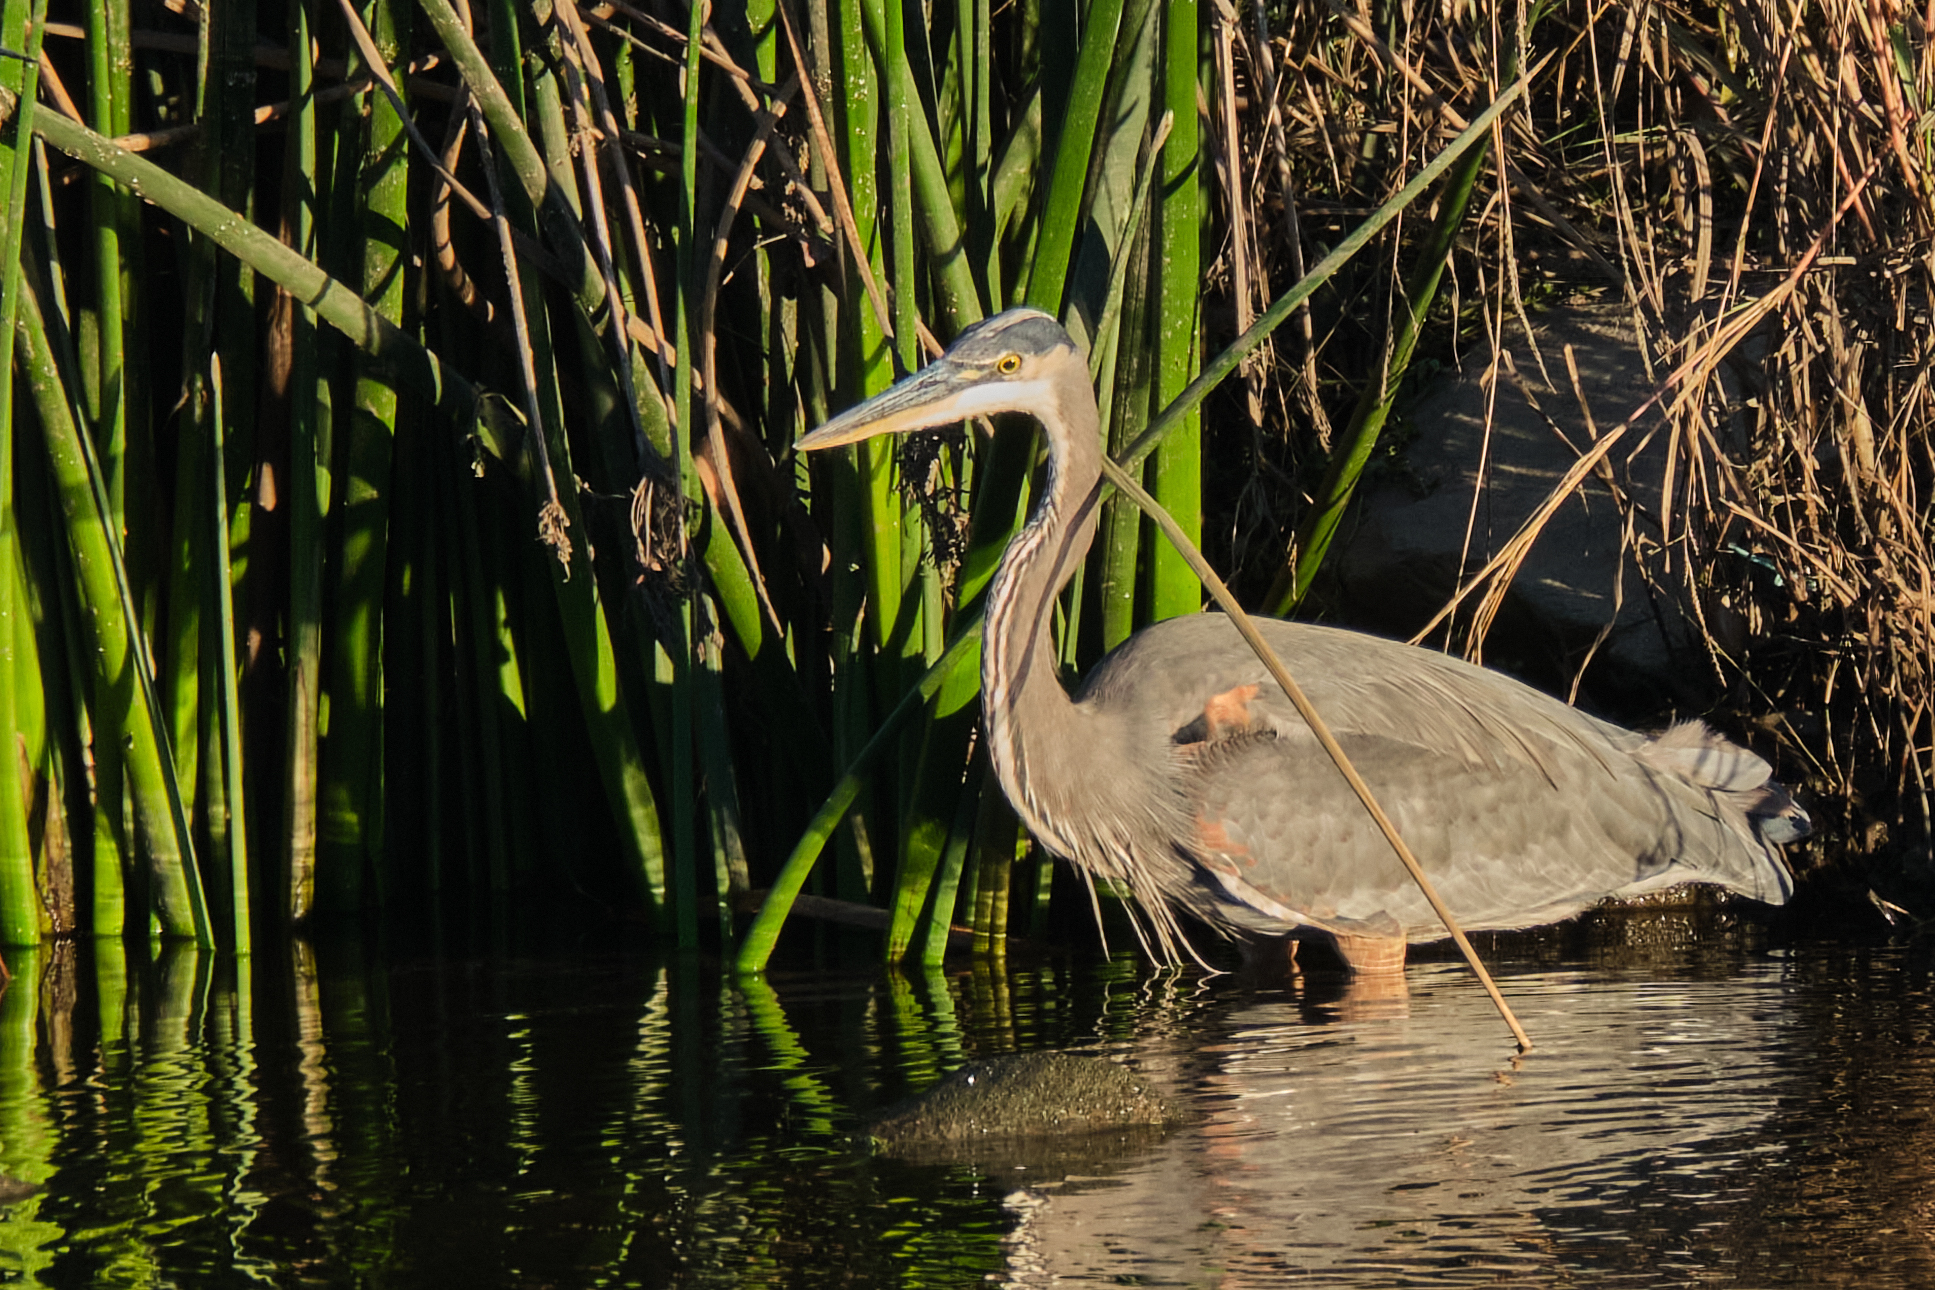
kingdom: Animalia
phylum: Chordata
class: Aves
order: Pelecaniformes
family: Ardeidae
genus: Ardea
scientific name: Ardea herodias
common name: Great blue heron
